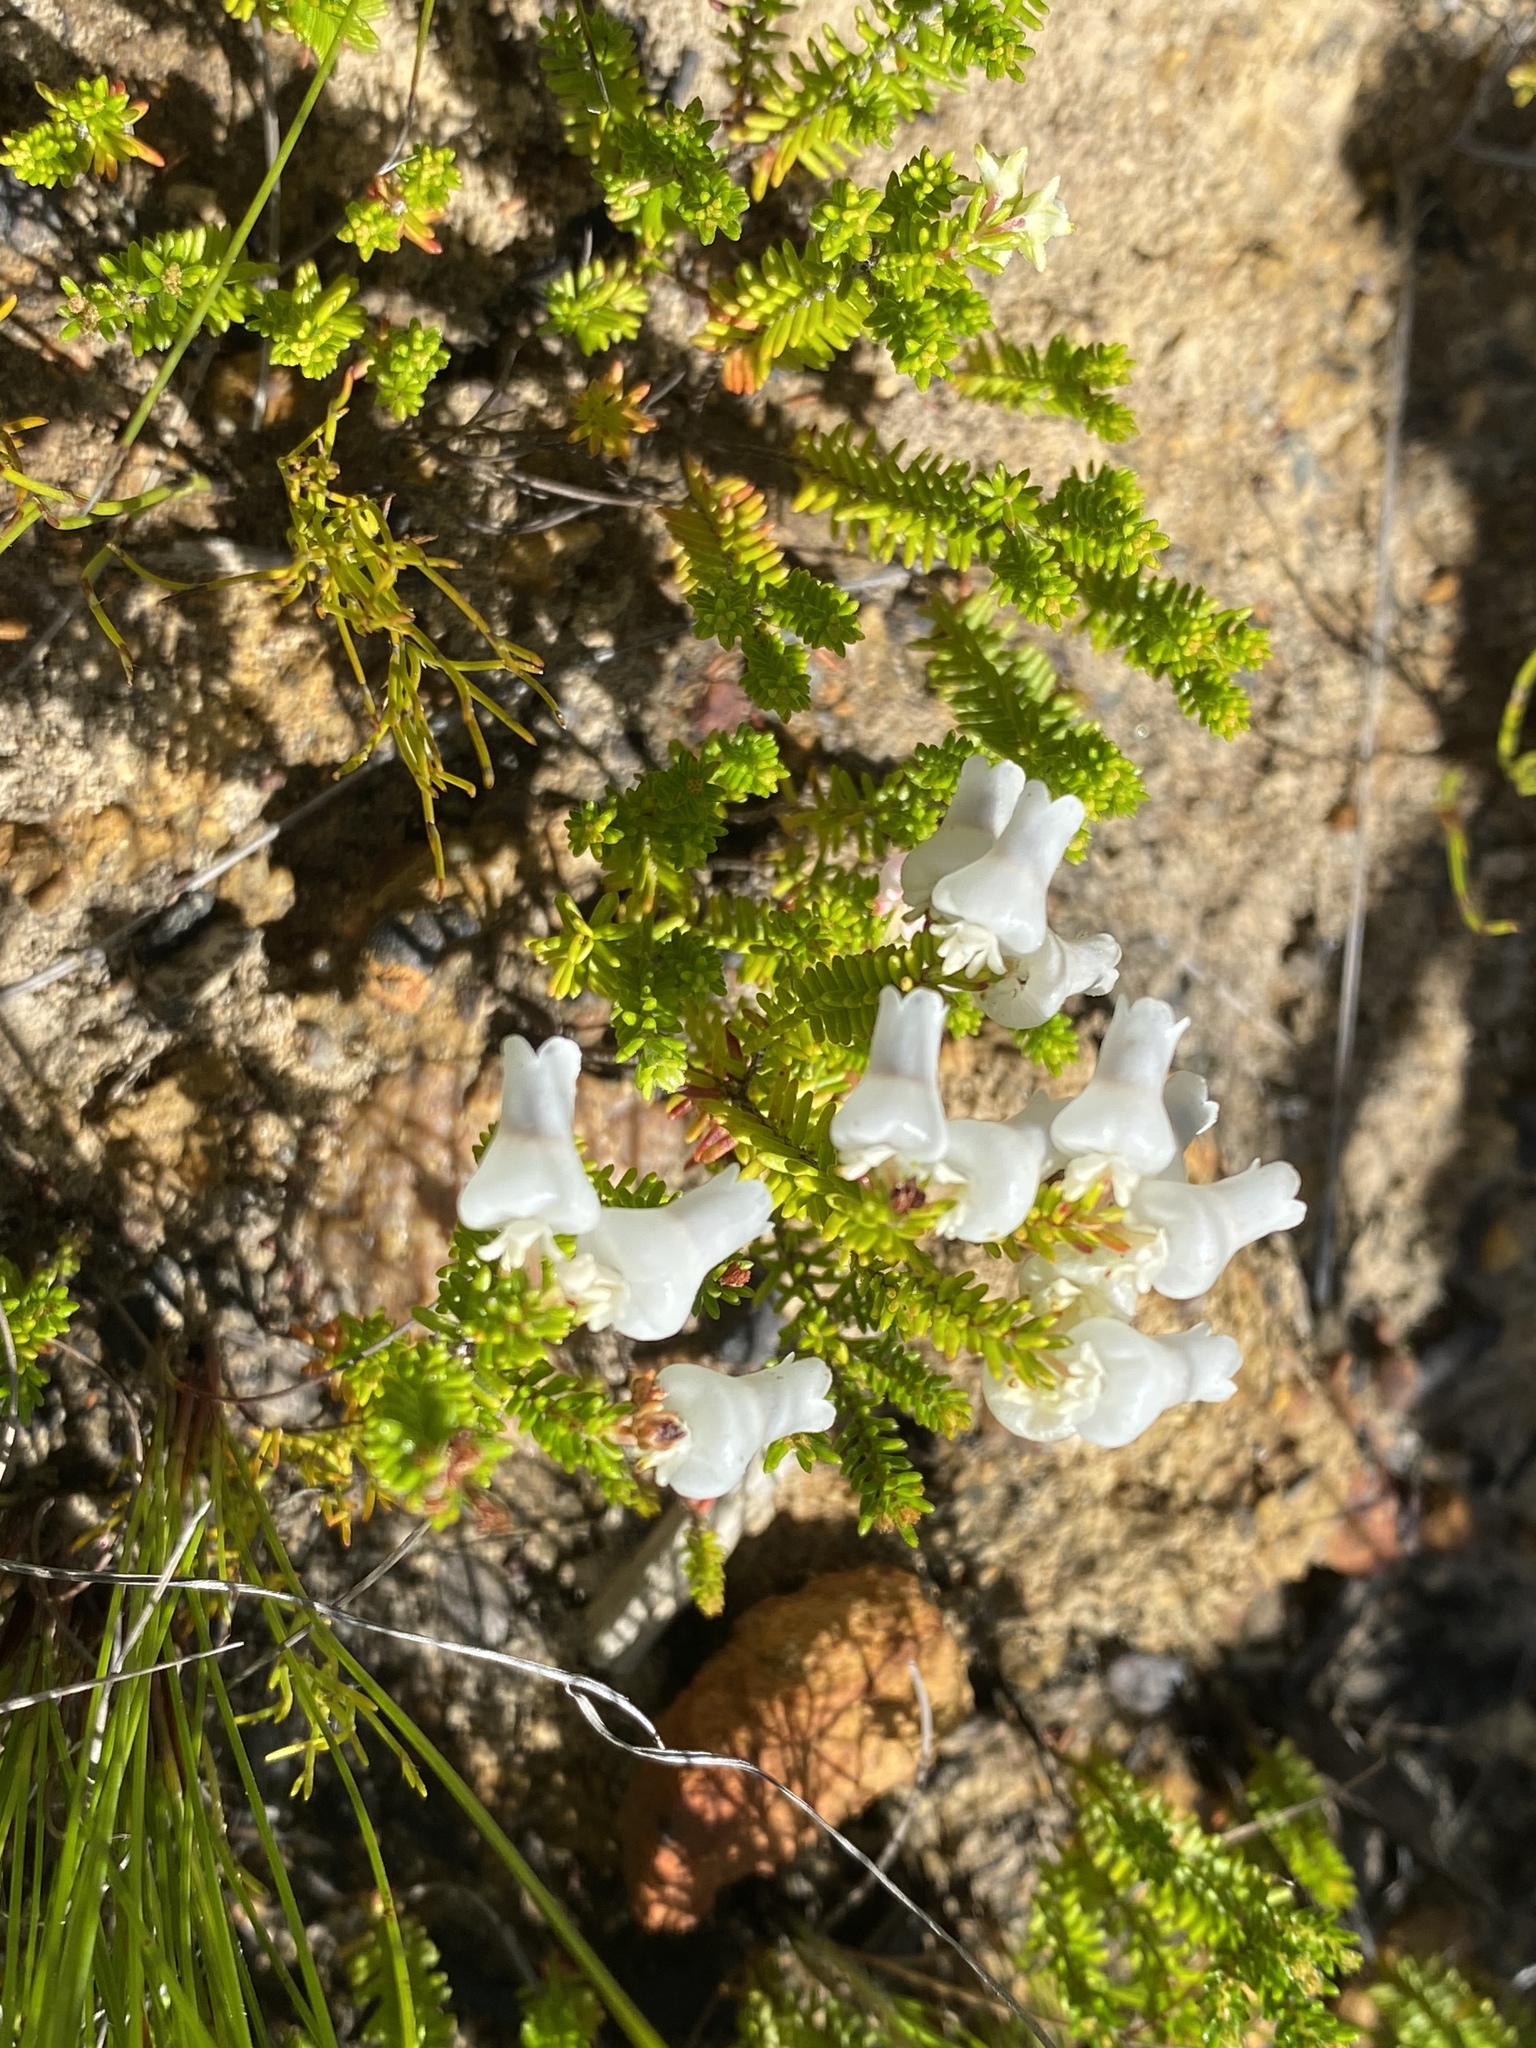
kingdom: Plantae
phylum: Tracheophyta
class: Magnoliopsida
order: Ericales
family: Ericaceae
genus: Erica
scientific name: Erica glomiflora
